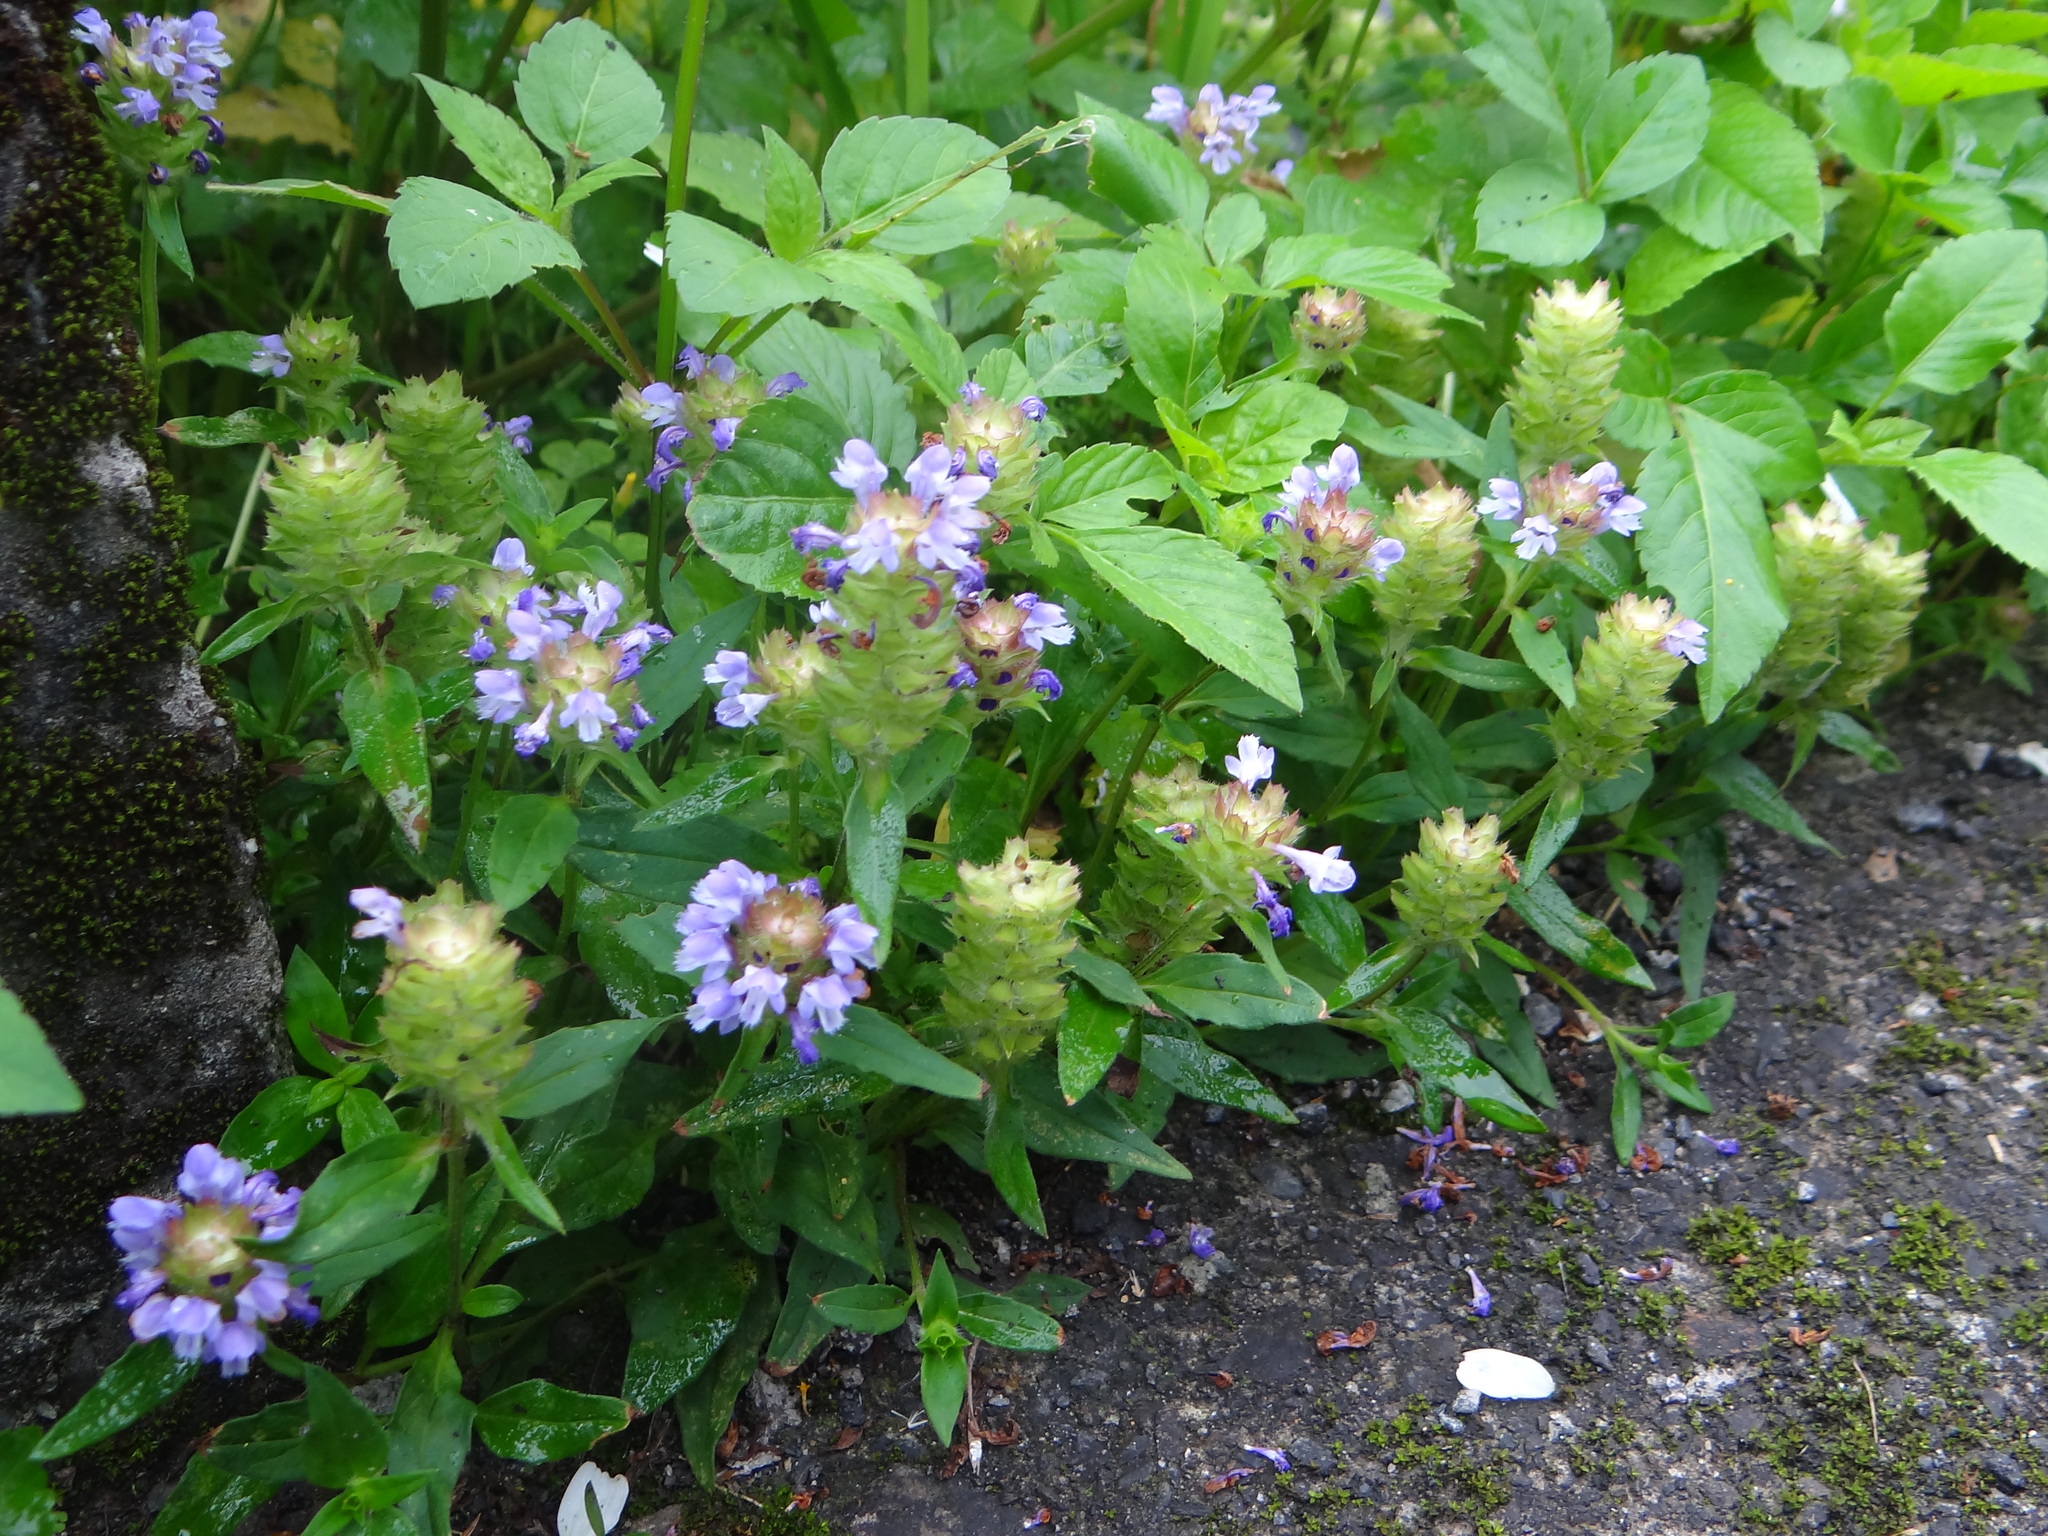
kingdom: Plantae
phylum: Tracheophyta
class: Magnoliopsida
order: Lamiales
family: Lamiaceae
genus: Prunella
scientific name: Prunella vulgaris
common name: Heal-all
